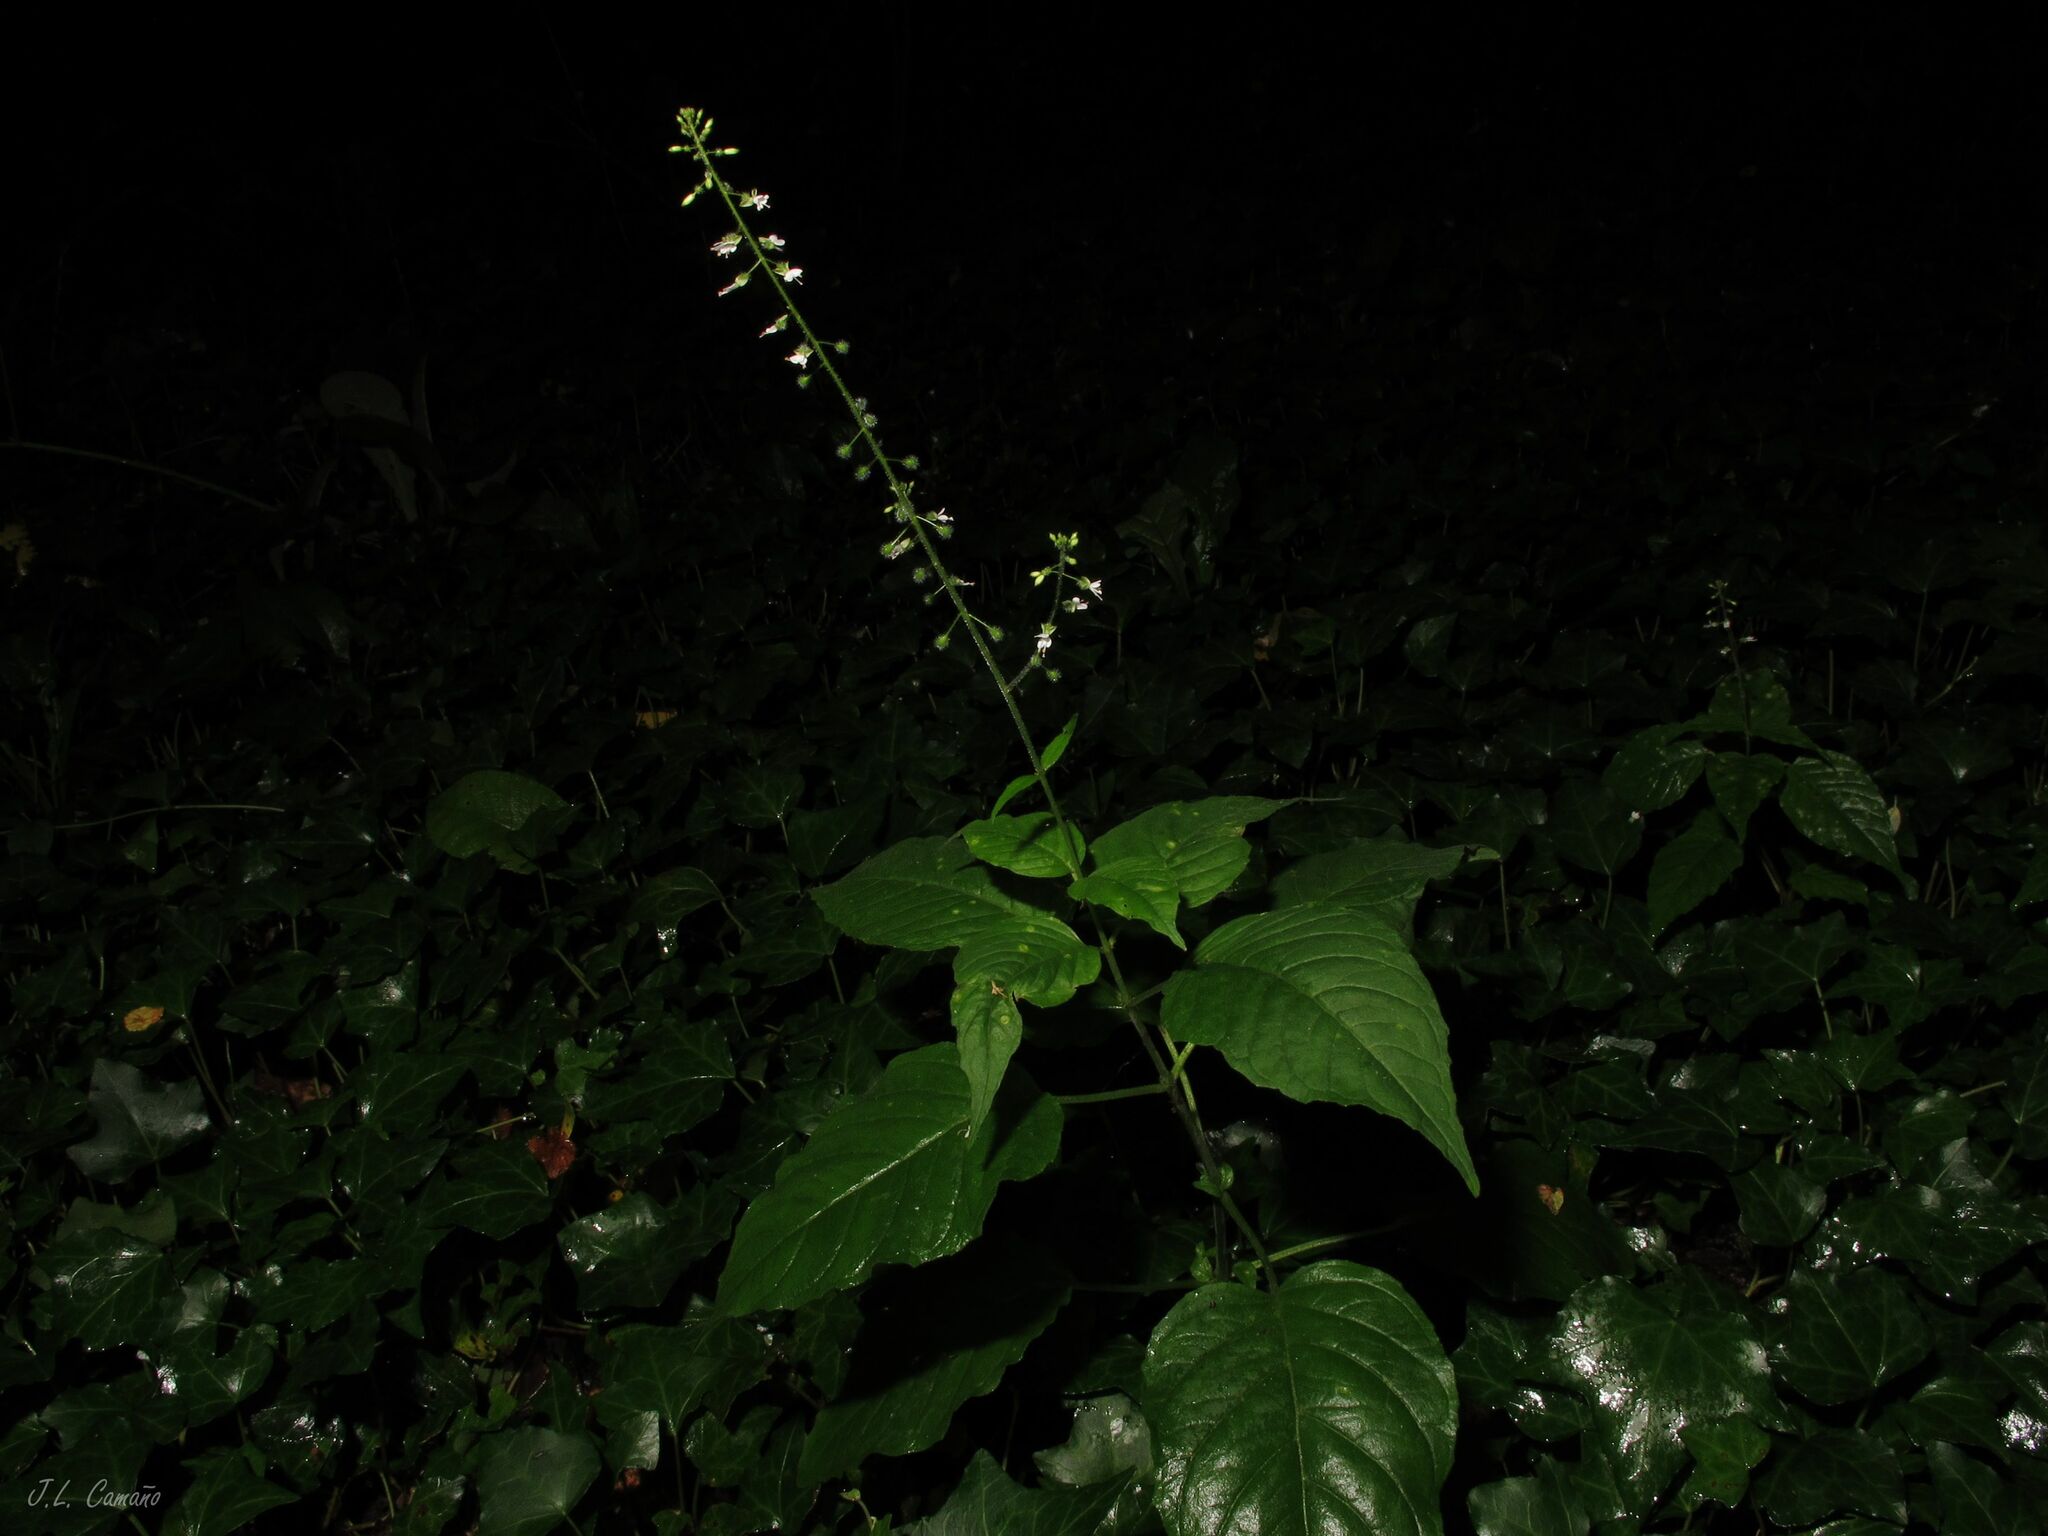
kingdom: Plantae
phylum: Tracheophyta
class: Magnoliopsida
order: Myrtales
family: Onagraceae
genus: Circaea
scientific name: Circaea lutetiana
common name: Enchanter's-nightshade
